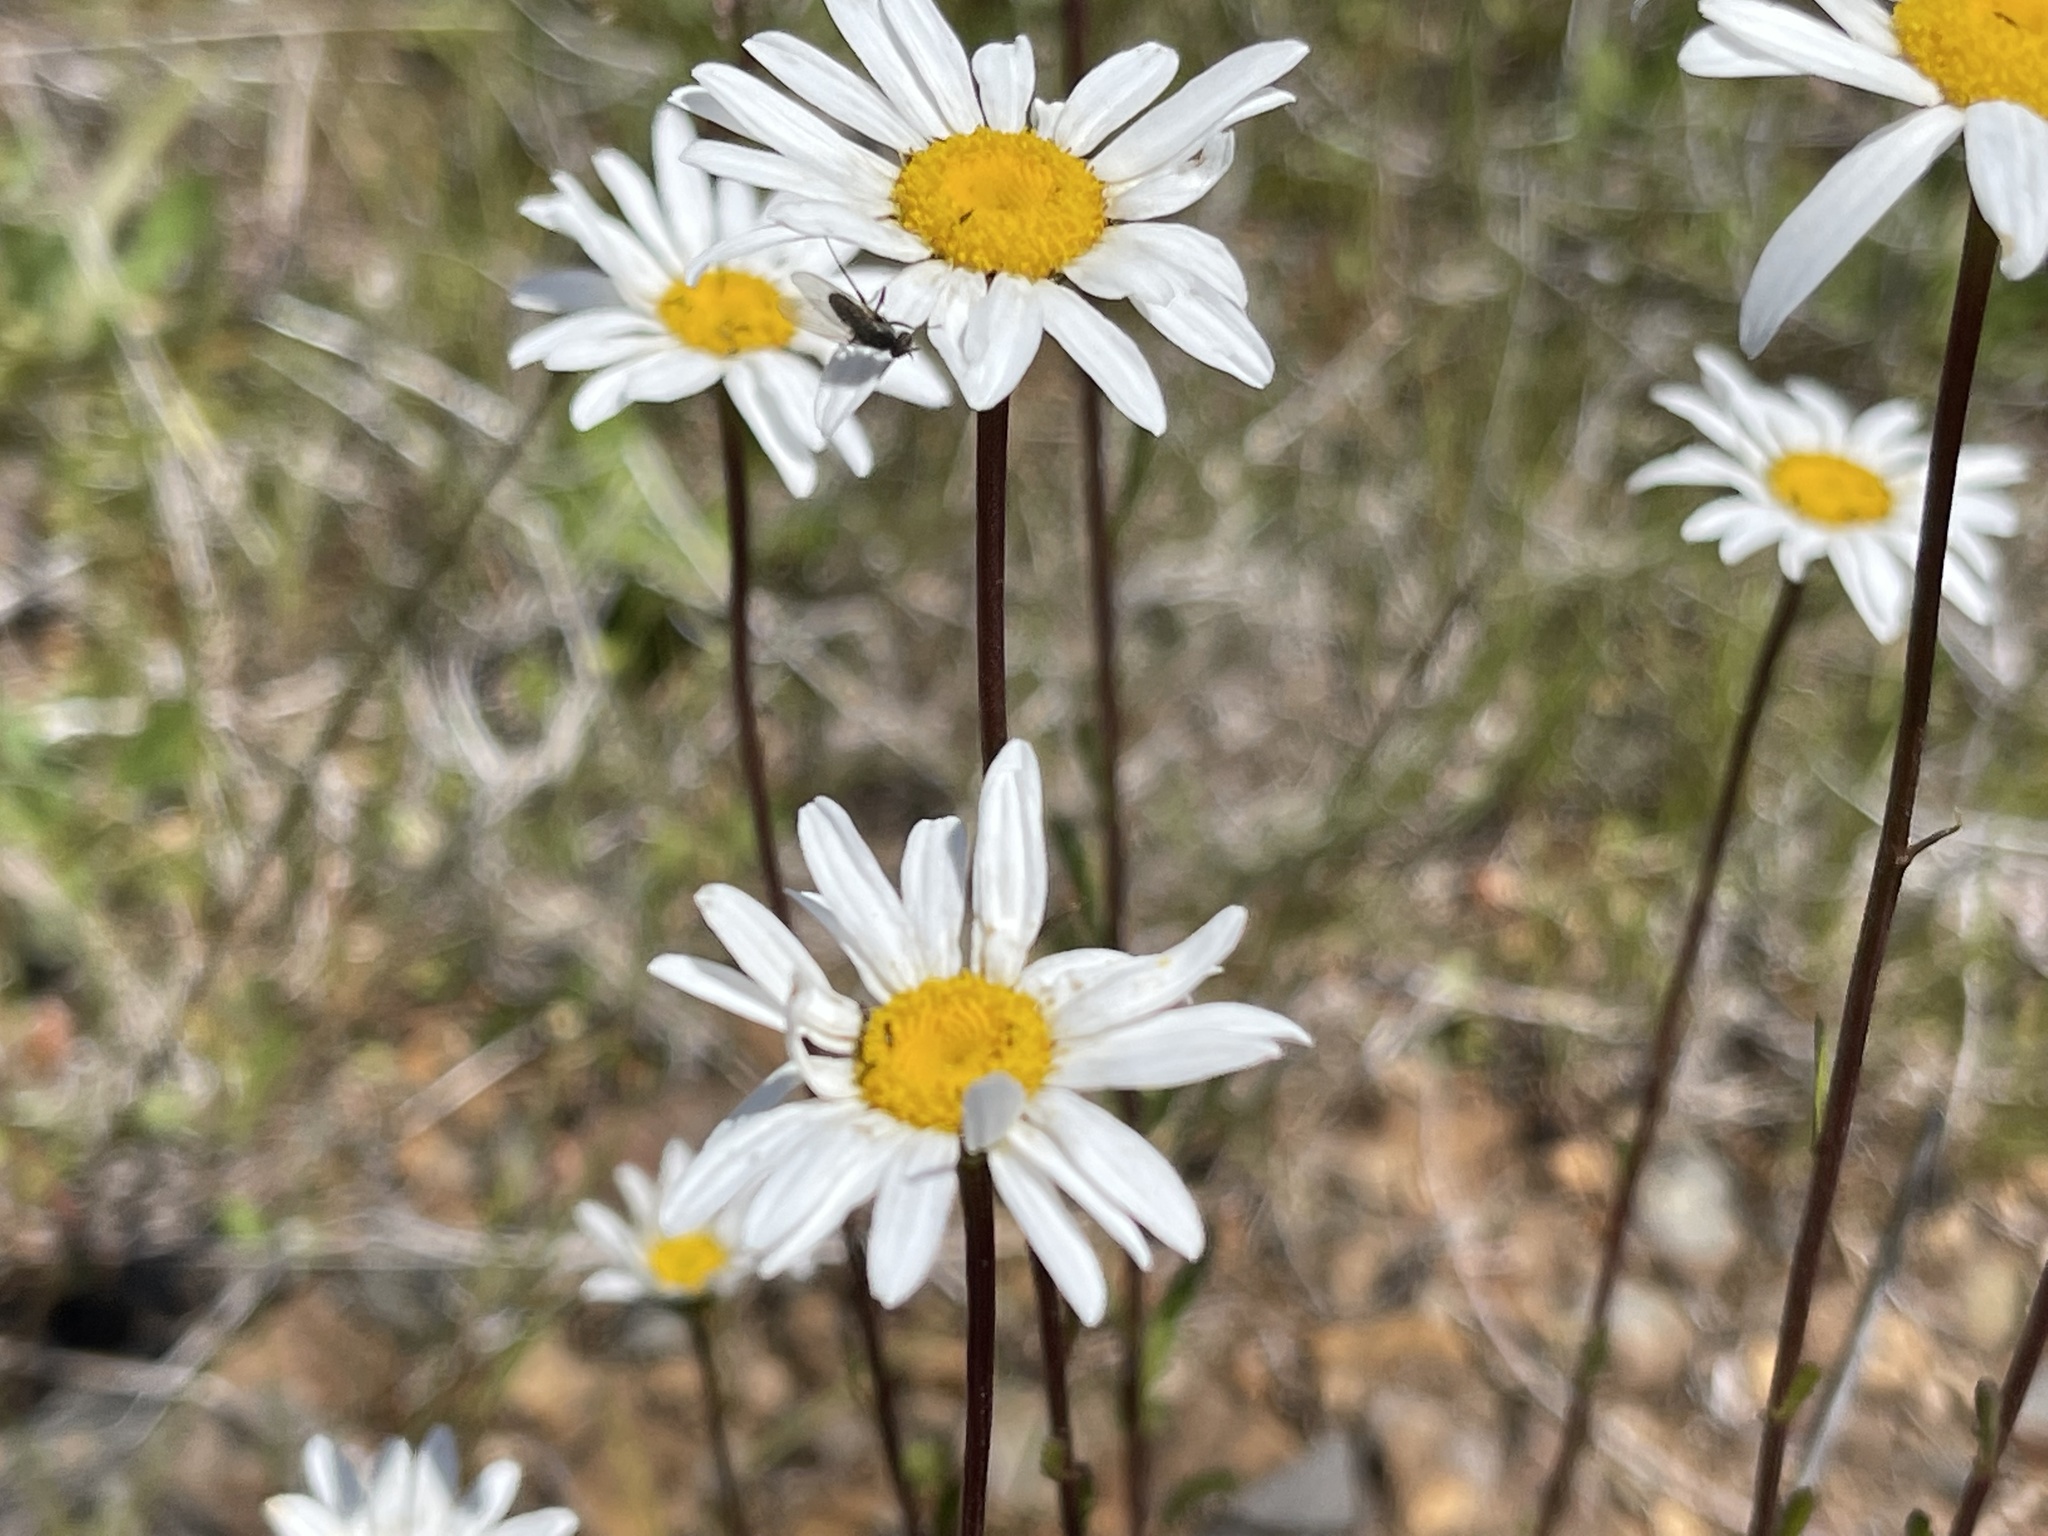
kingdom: Plantae
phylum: Tracheophyta
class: Magnoliopsida
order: Asterales
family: Asteraceae
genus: Leucanthemum
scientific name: Leucanthemum vulgare
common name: Oxeye daisy
